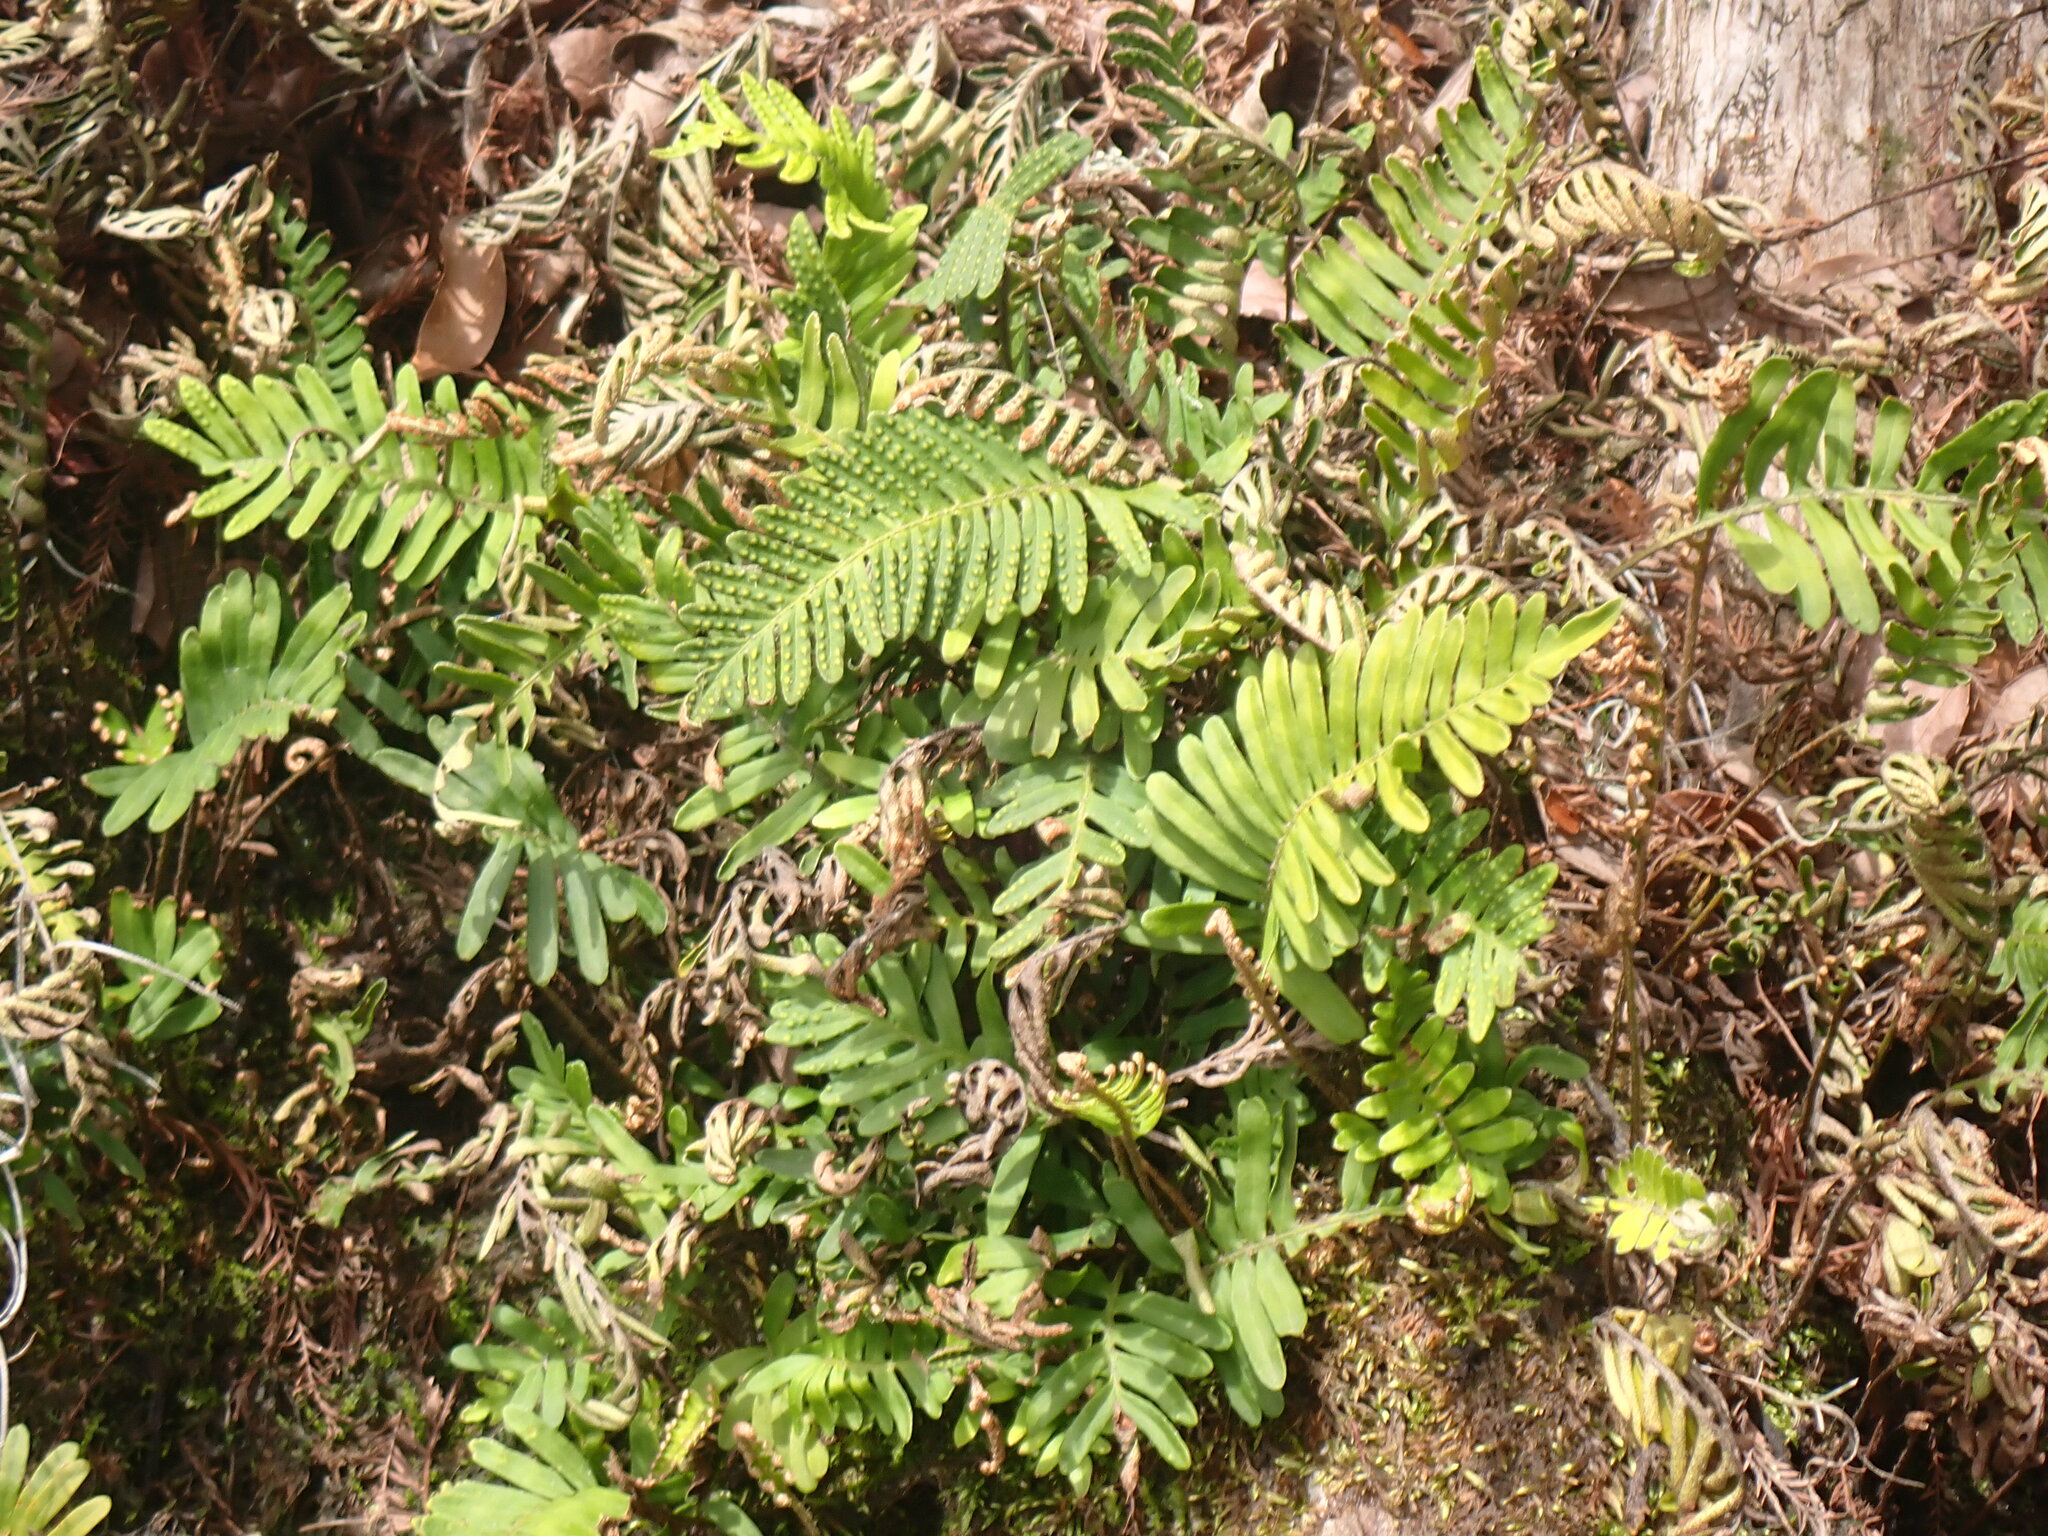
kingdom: Plantae
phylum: Tracheophyta
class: Polypodiopsida
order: Polypodiales
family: Polypodiaceae
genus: Pleopeltis
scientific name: Pleopeltis michauxiana
